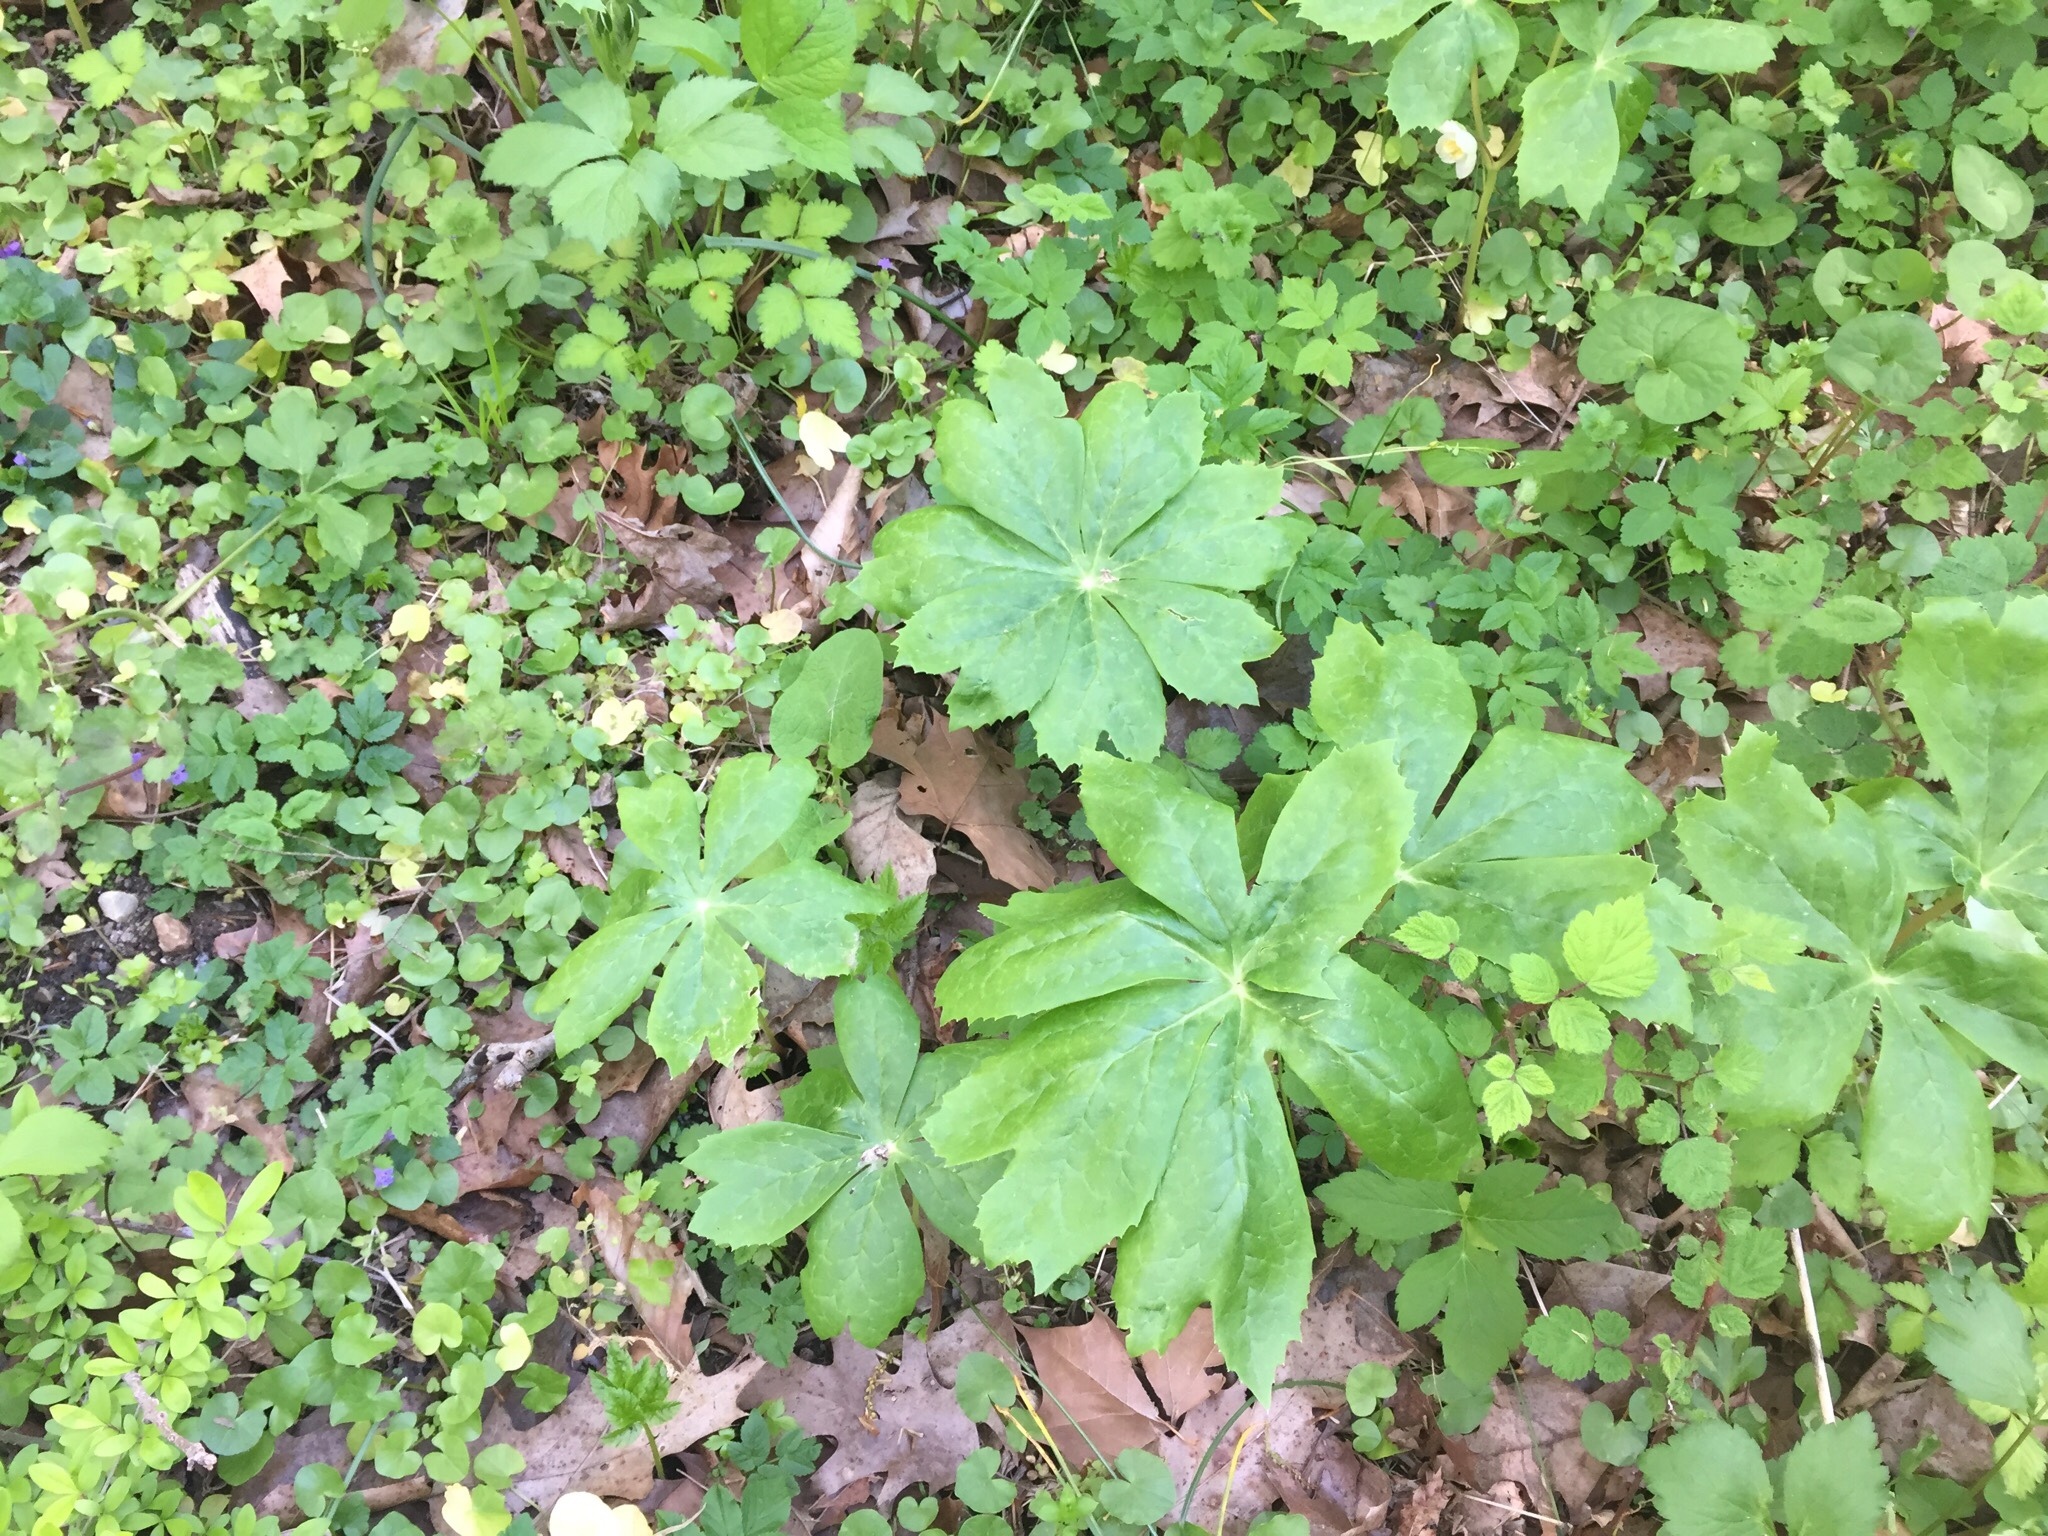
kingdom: Plantae
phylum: Tracheophyta
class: Magnoliopsida
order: Ranunculales
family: Berberidaceae
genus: Podophyllum
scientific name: Podophyllum peltatum
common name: Wild mandrake
